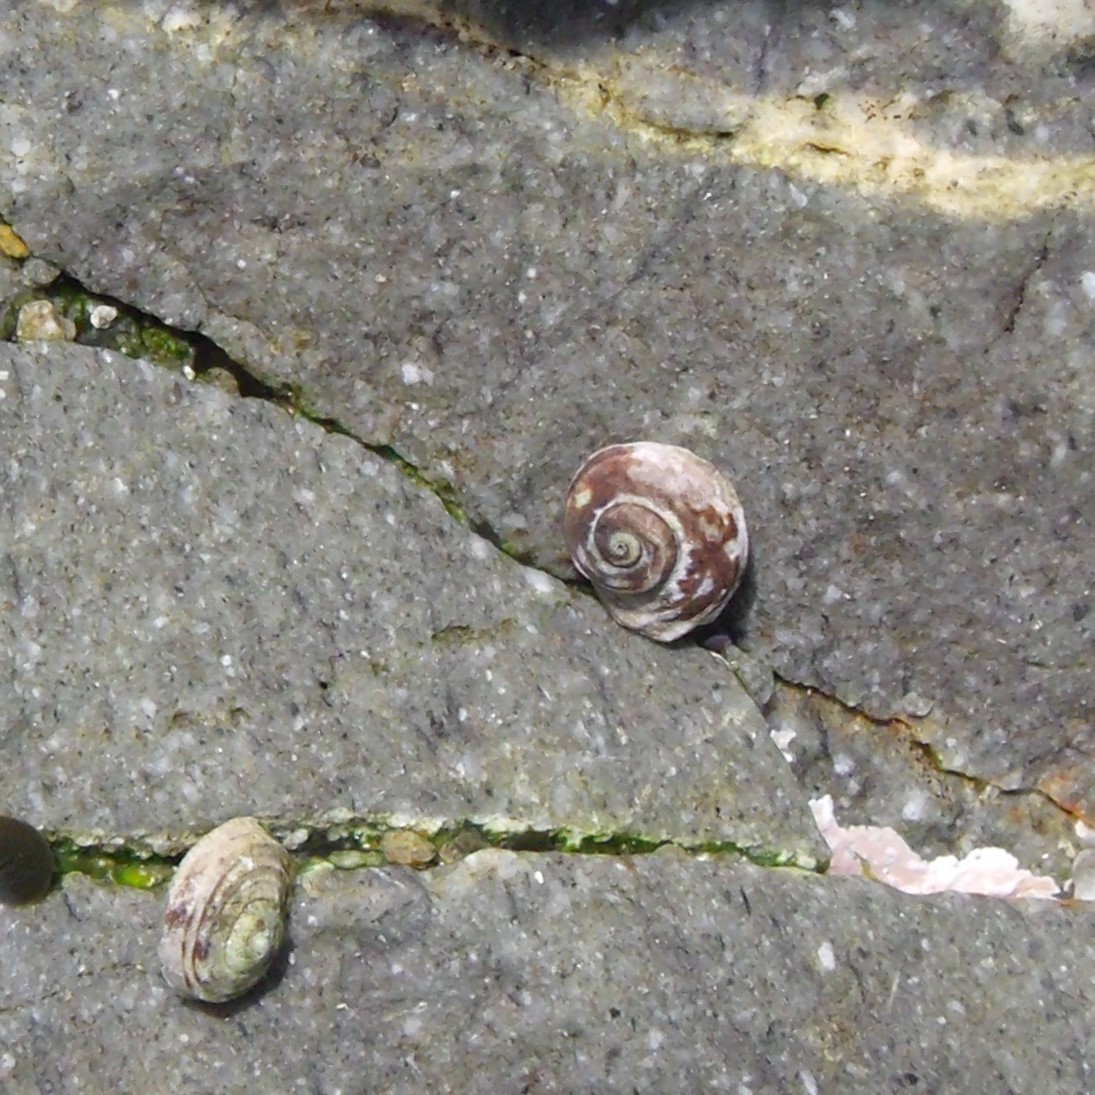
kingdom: Animalia
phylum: Mollusca
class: Gastropoda
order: Trochida
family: Turbinidae
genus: Lunella
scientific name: Lunella smaragda
